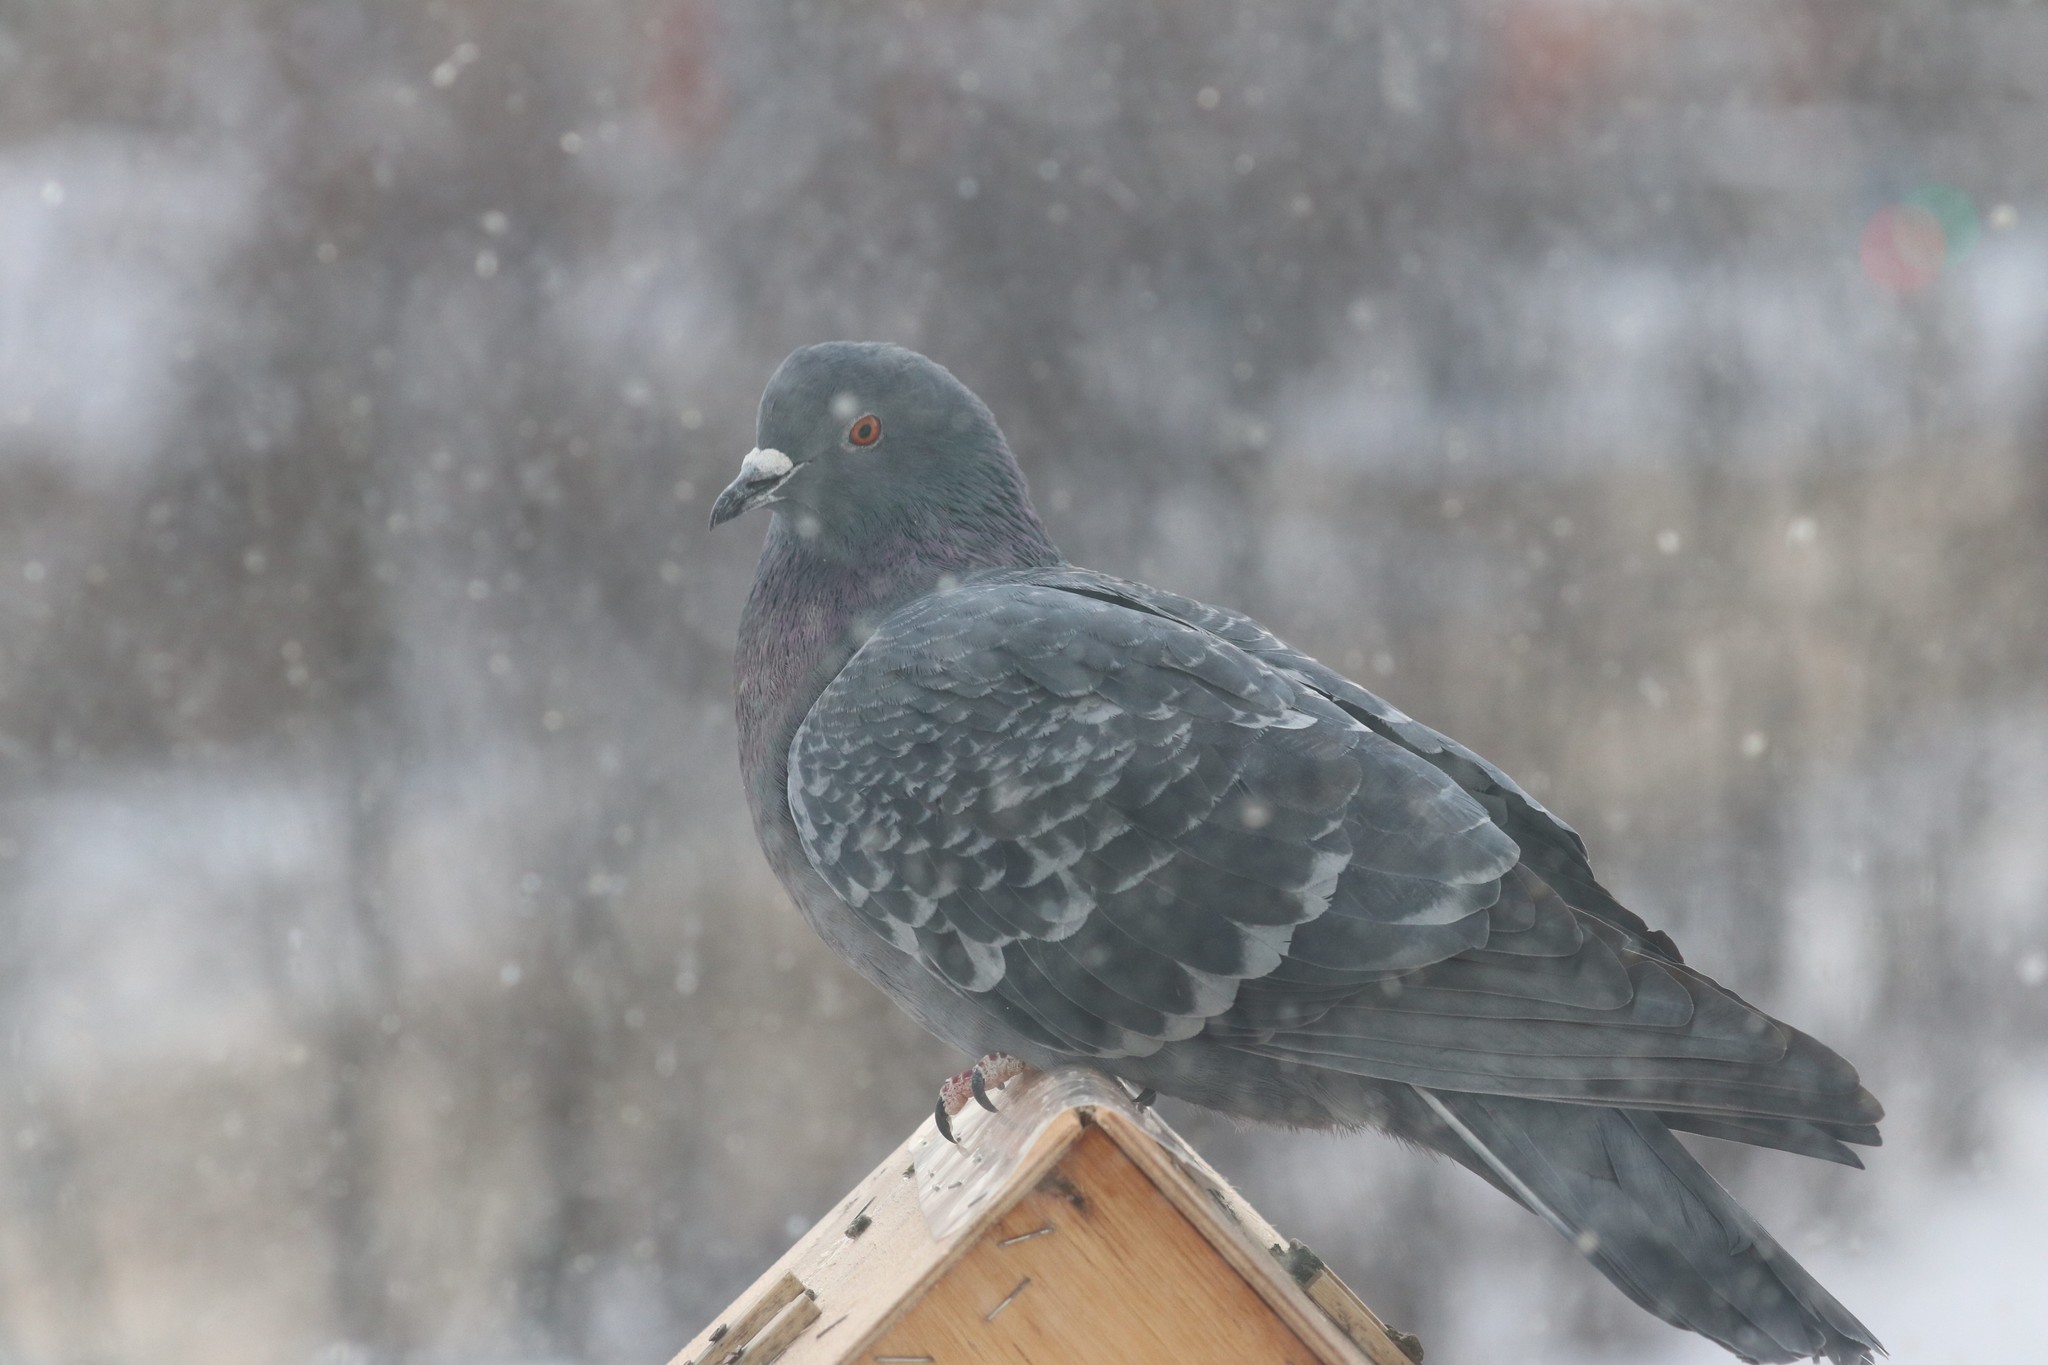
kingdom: Animalia
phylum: Chordata
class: Aves
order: Columbiformes
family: Columbidae
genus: Columba
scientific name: Columba livia
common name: Rock pigeon
